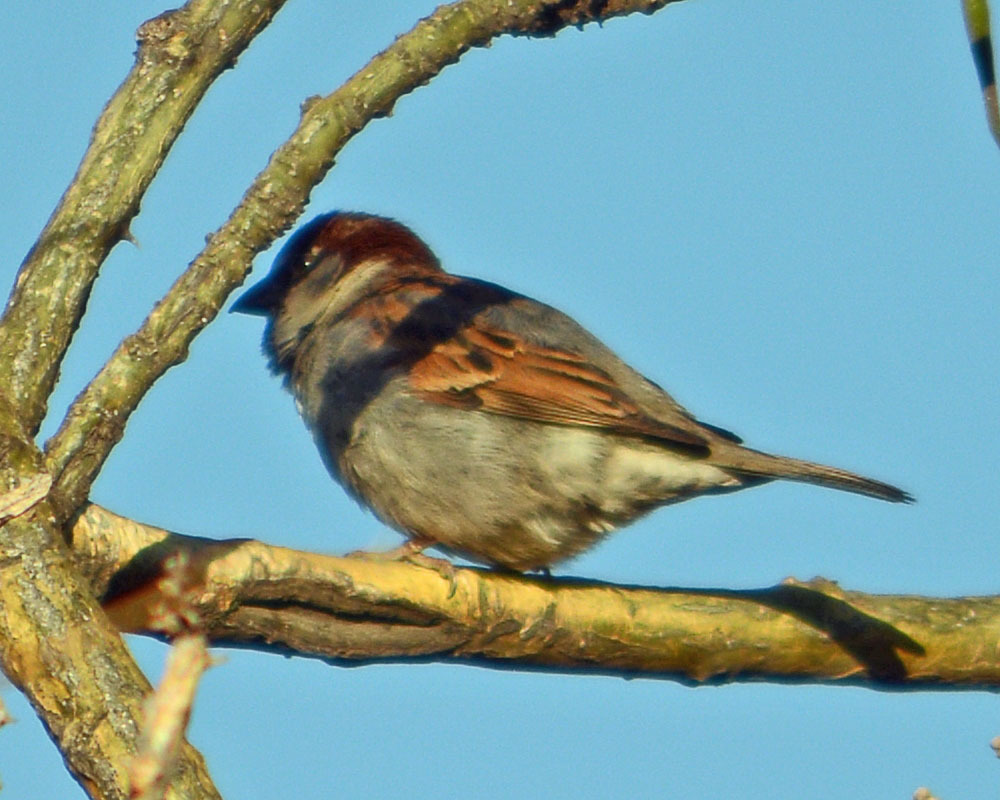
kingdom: Animalia
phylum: Chordata
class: Aves
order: Passeriformes
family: Passeridae
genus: Passer
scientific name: Passer domesticus
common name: House sparrow
